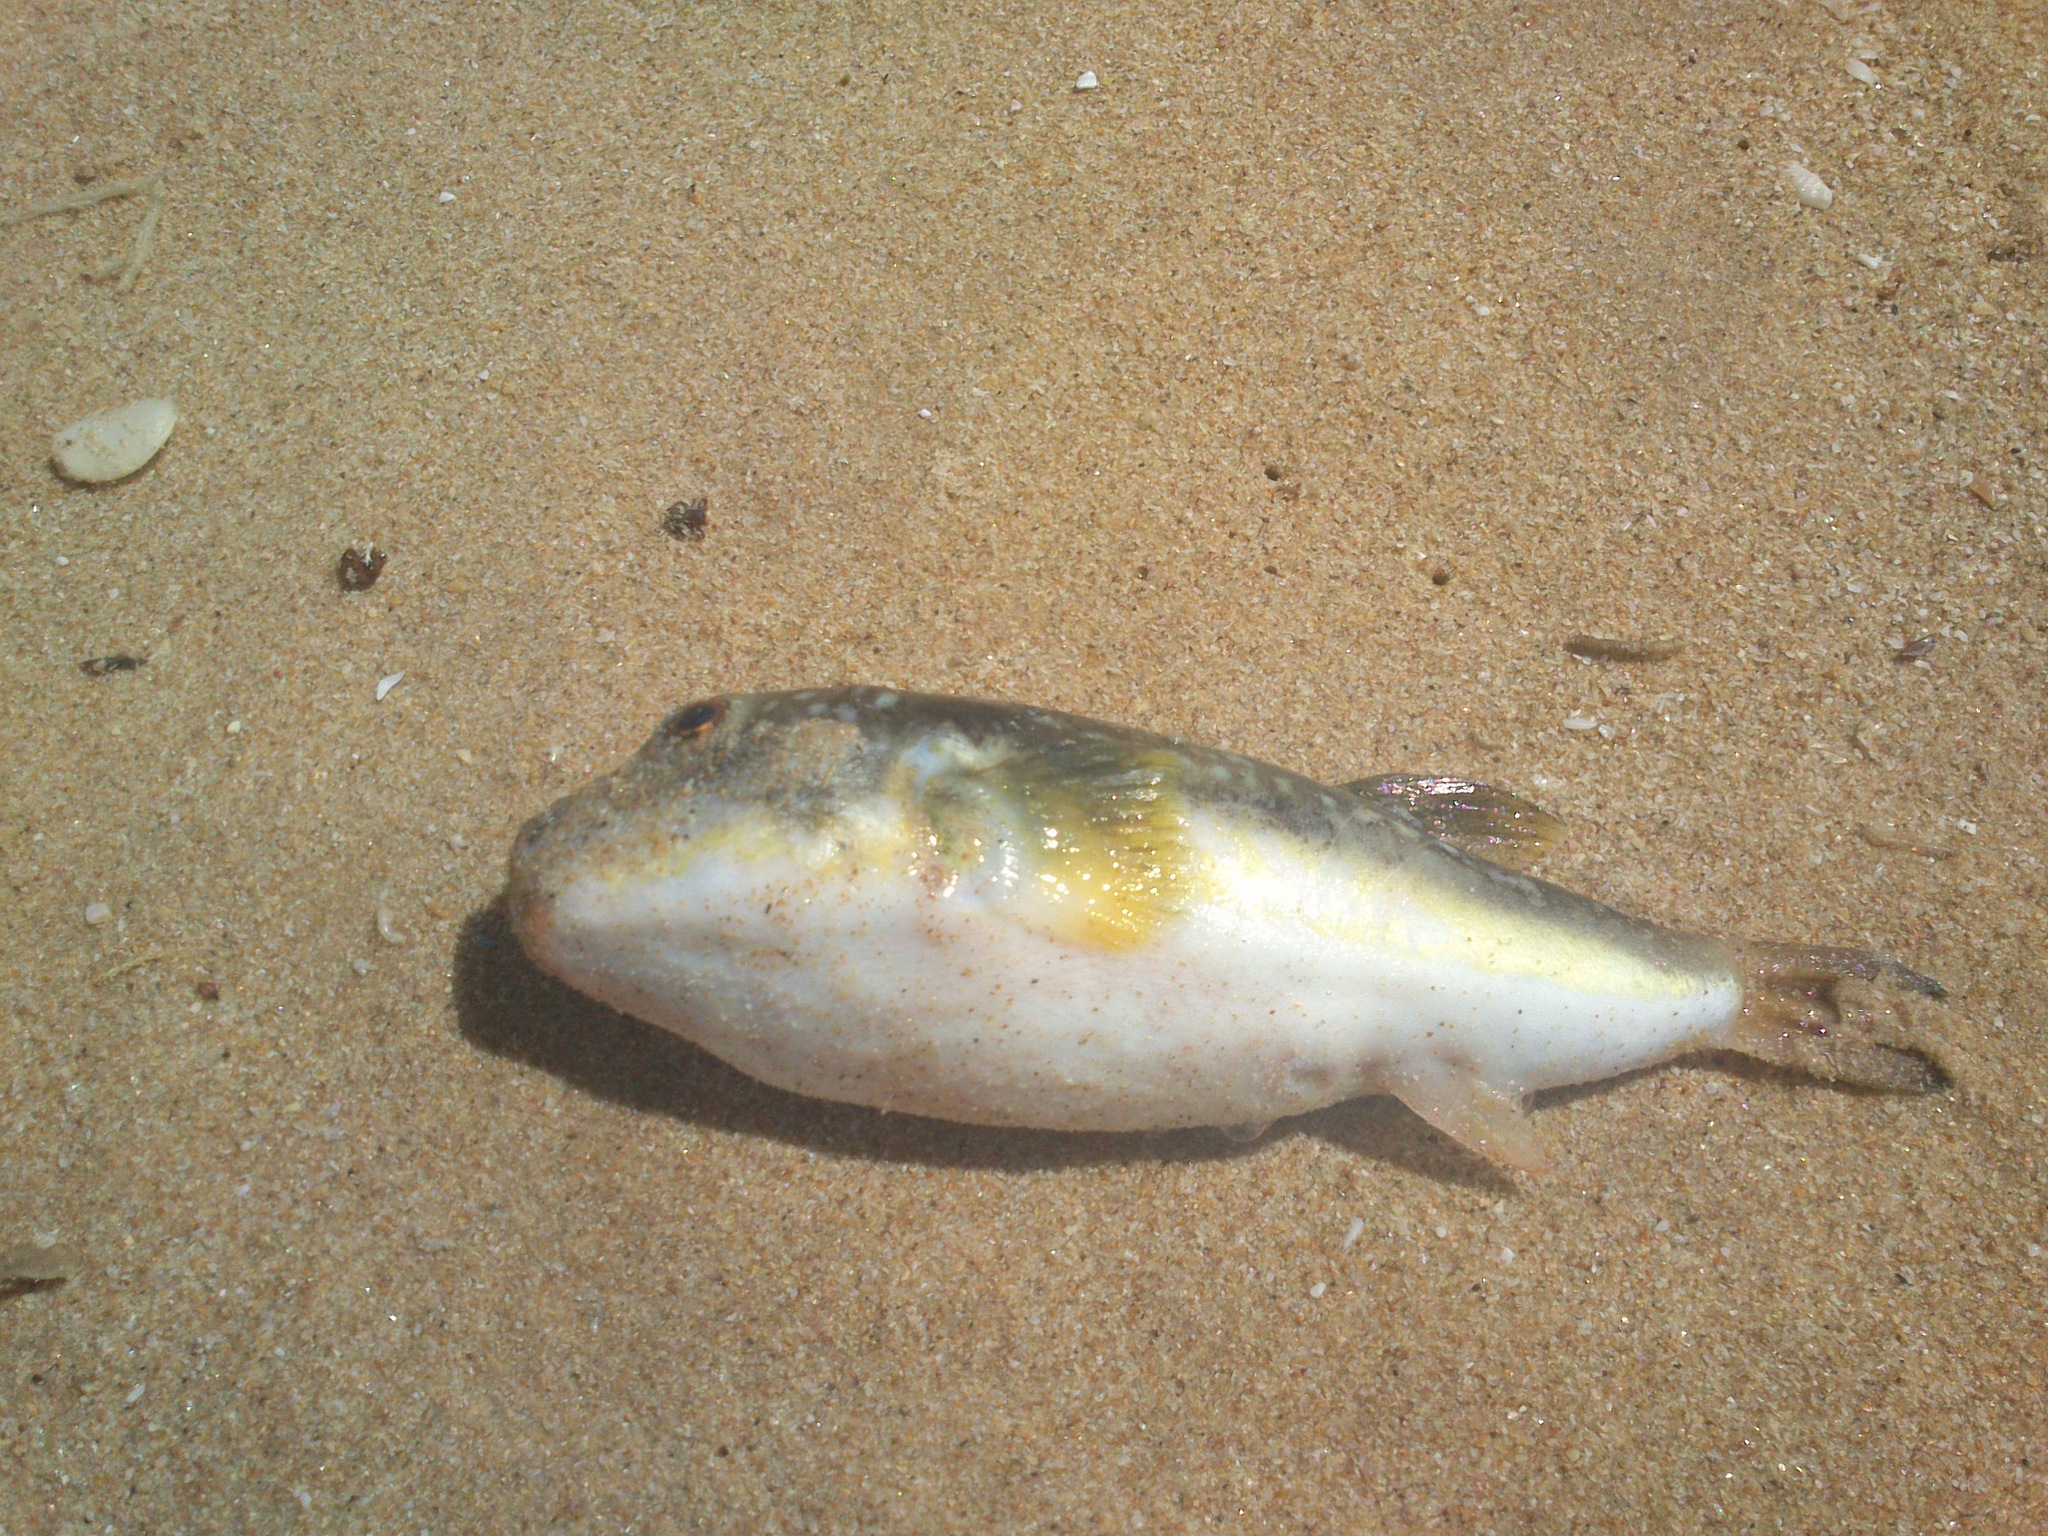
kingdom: Animalia
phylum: Chordata
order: Tetraodontiformes
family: Tetraodontidae
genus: Amblyrhynchote
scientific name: Amblyrhynchote honckenii
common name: Evileye blaasop
